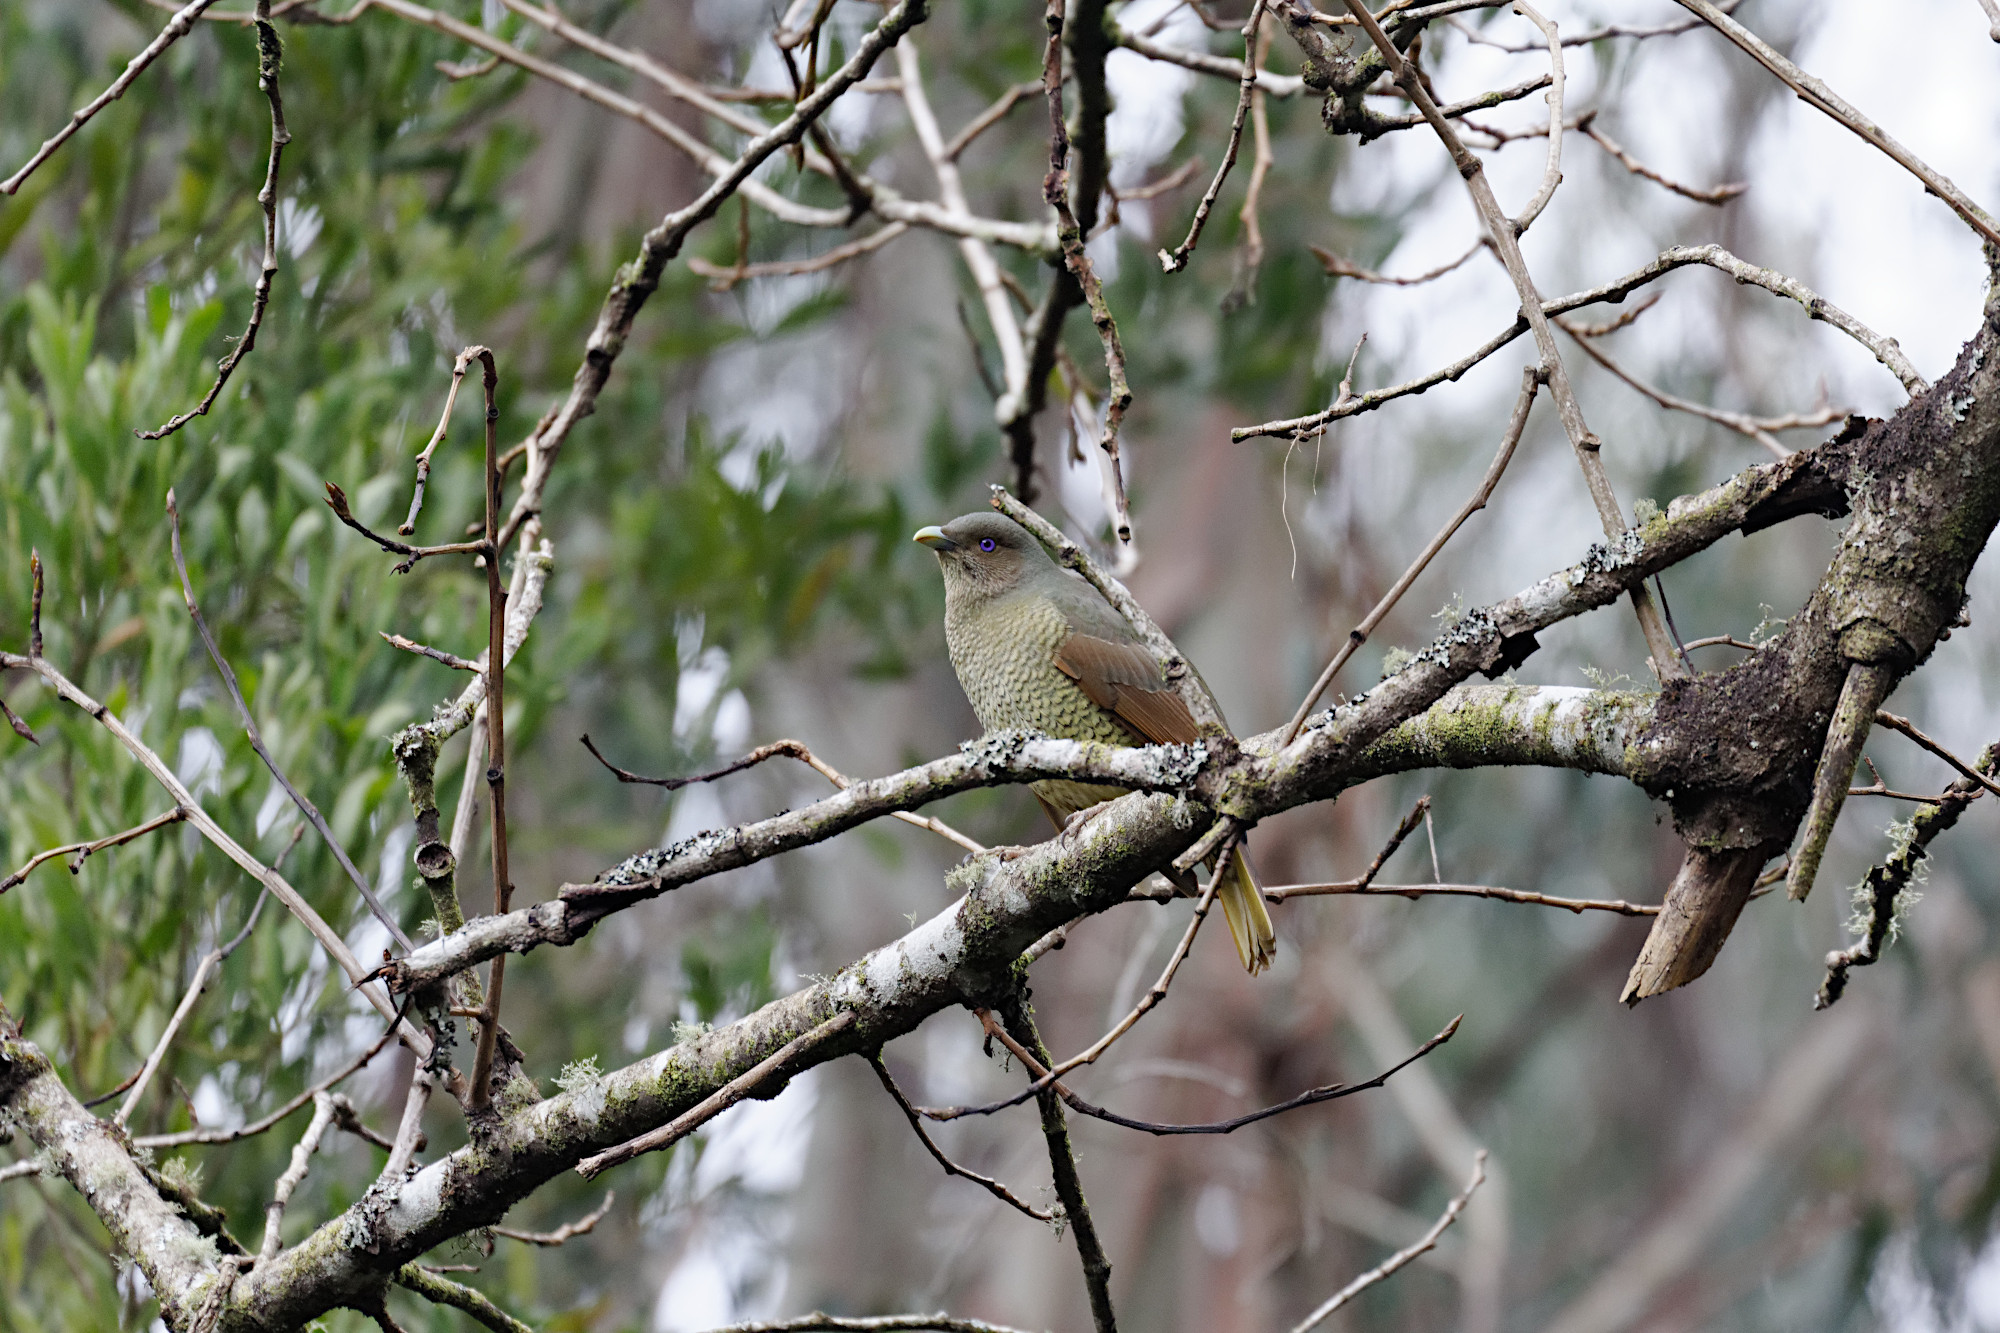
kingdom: Animalia
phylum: Chordata
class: Aves
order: Passeriformes
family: Ptilonorhynchidae
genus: Ptilonorhynchus
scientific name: Ptilonorhynchus violaceus
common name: Satin bowerbird
